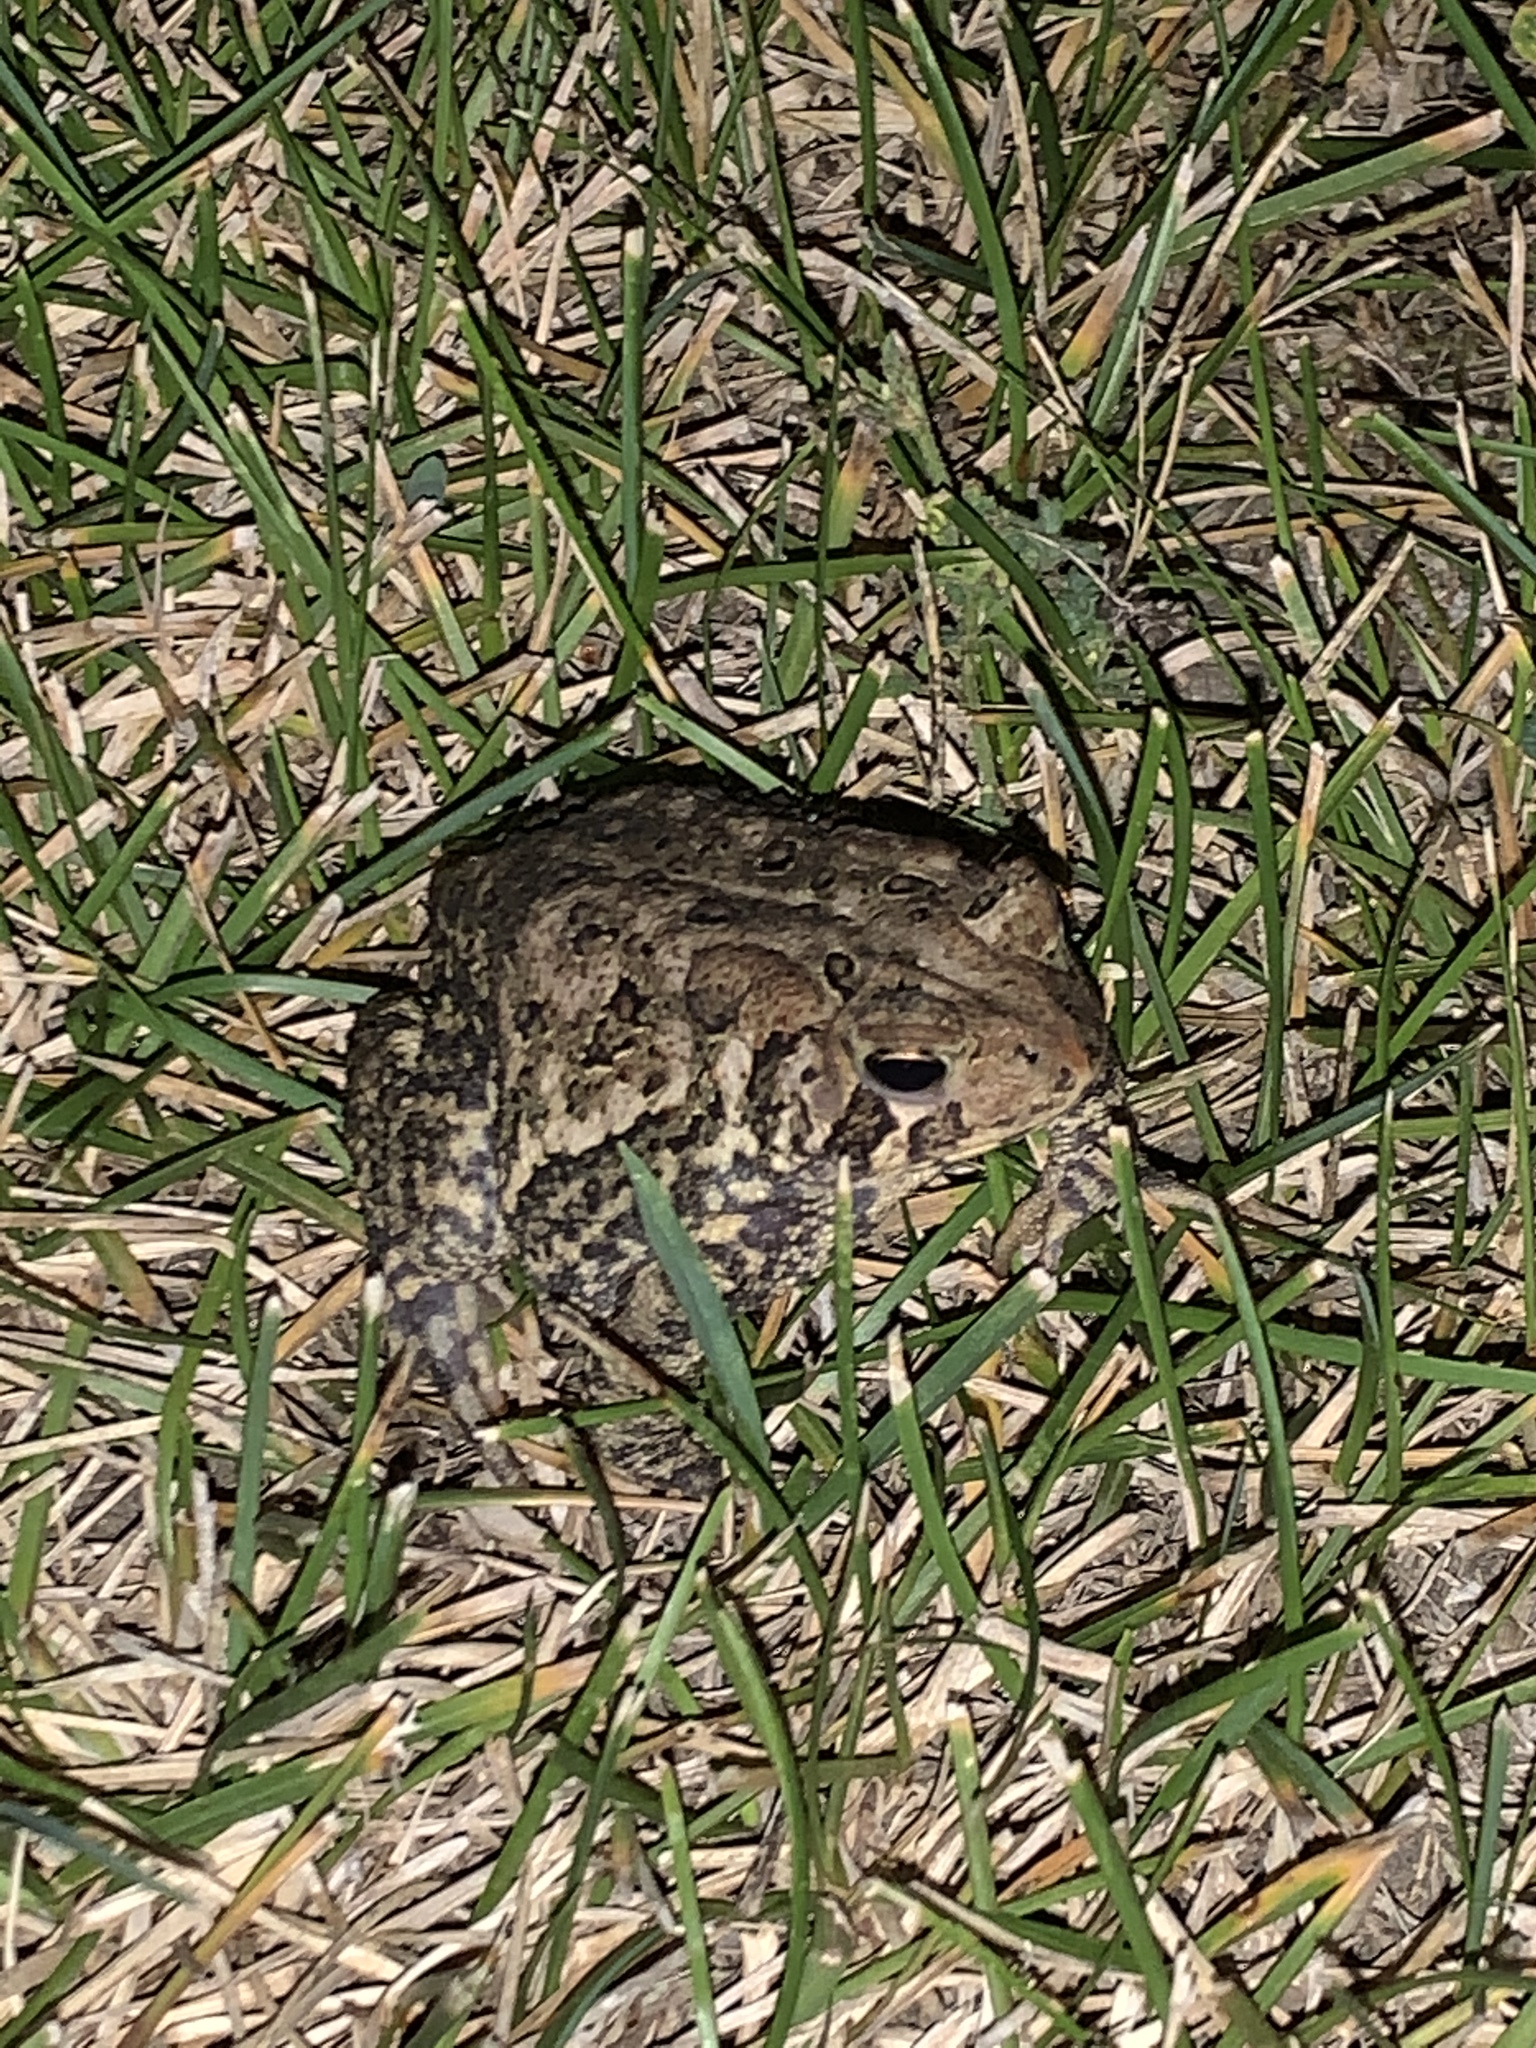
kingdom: Animalia
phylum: Chordata
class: Amphibia
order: Anura
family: Bufonidae
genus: Anaxyrus
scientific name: Anaxyrus americanus
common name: American toad
